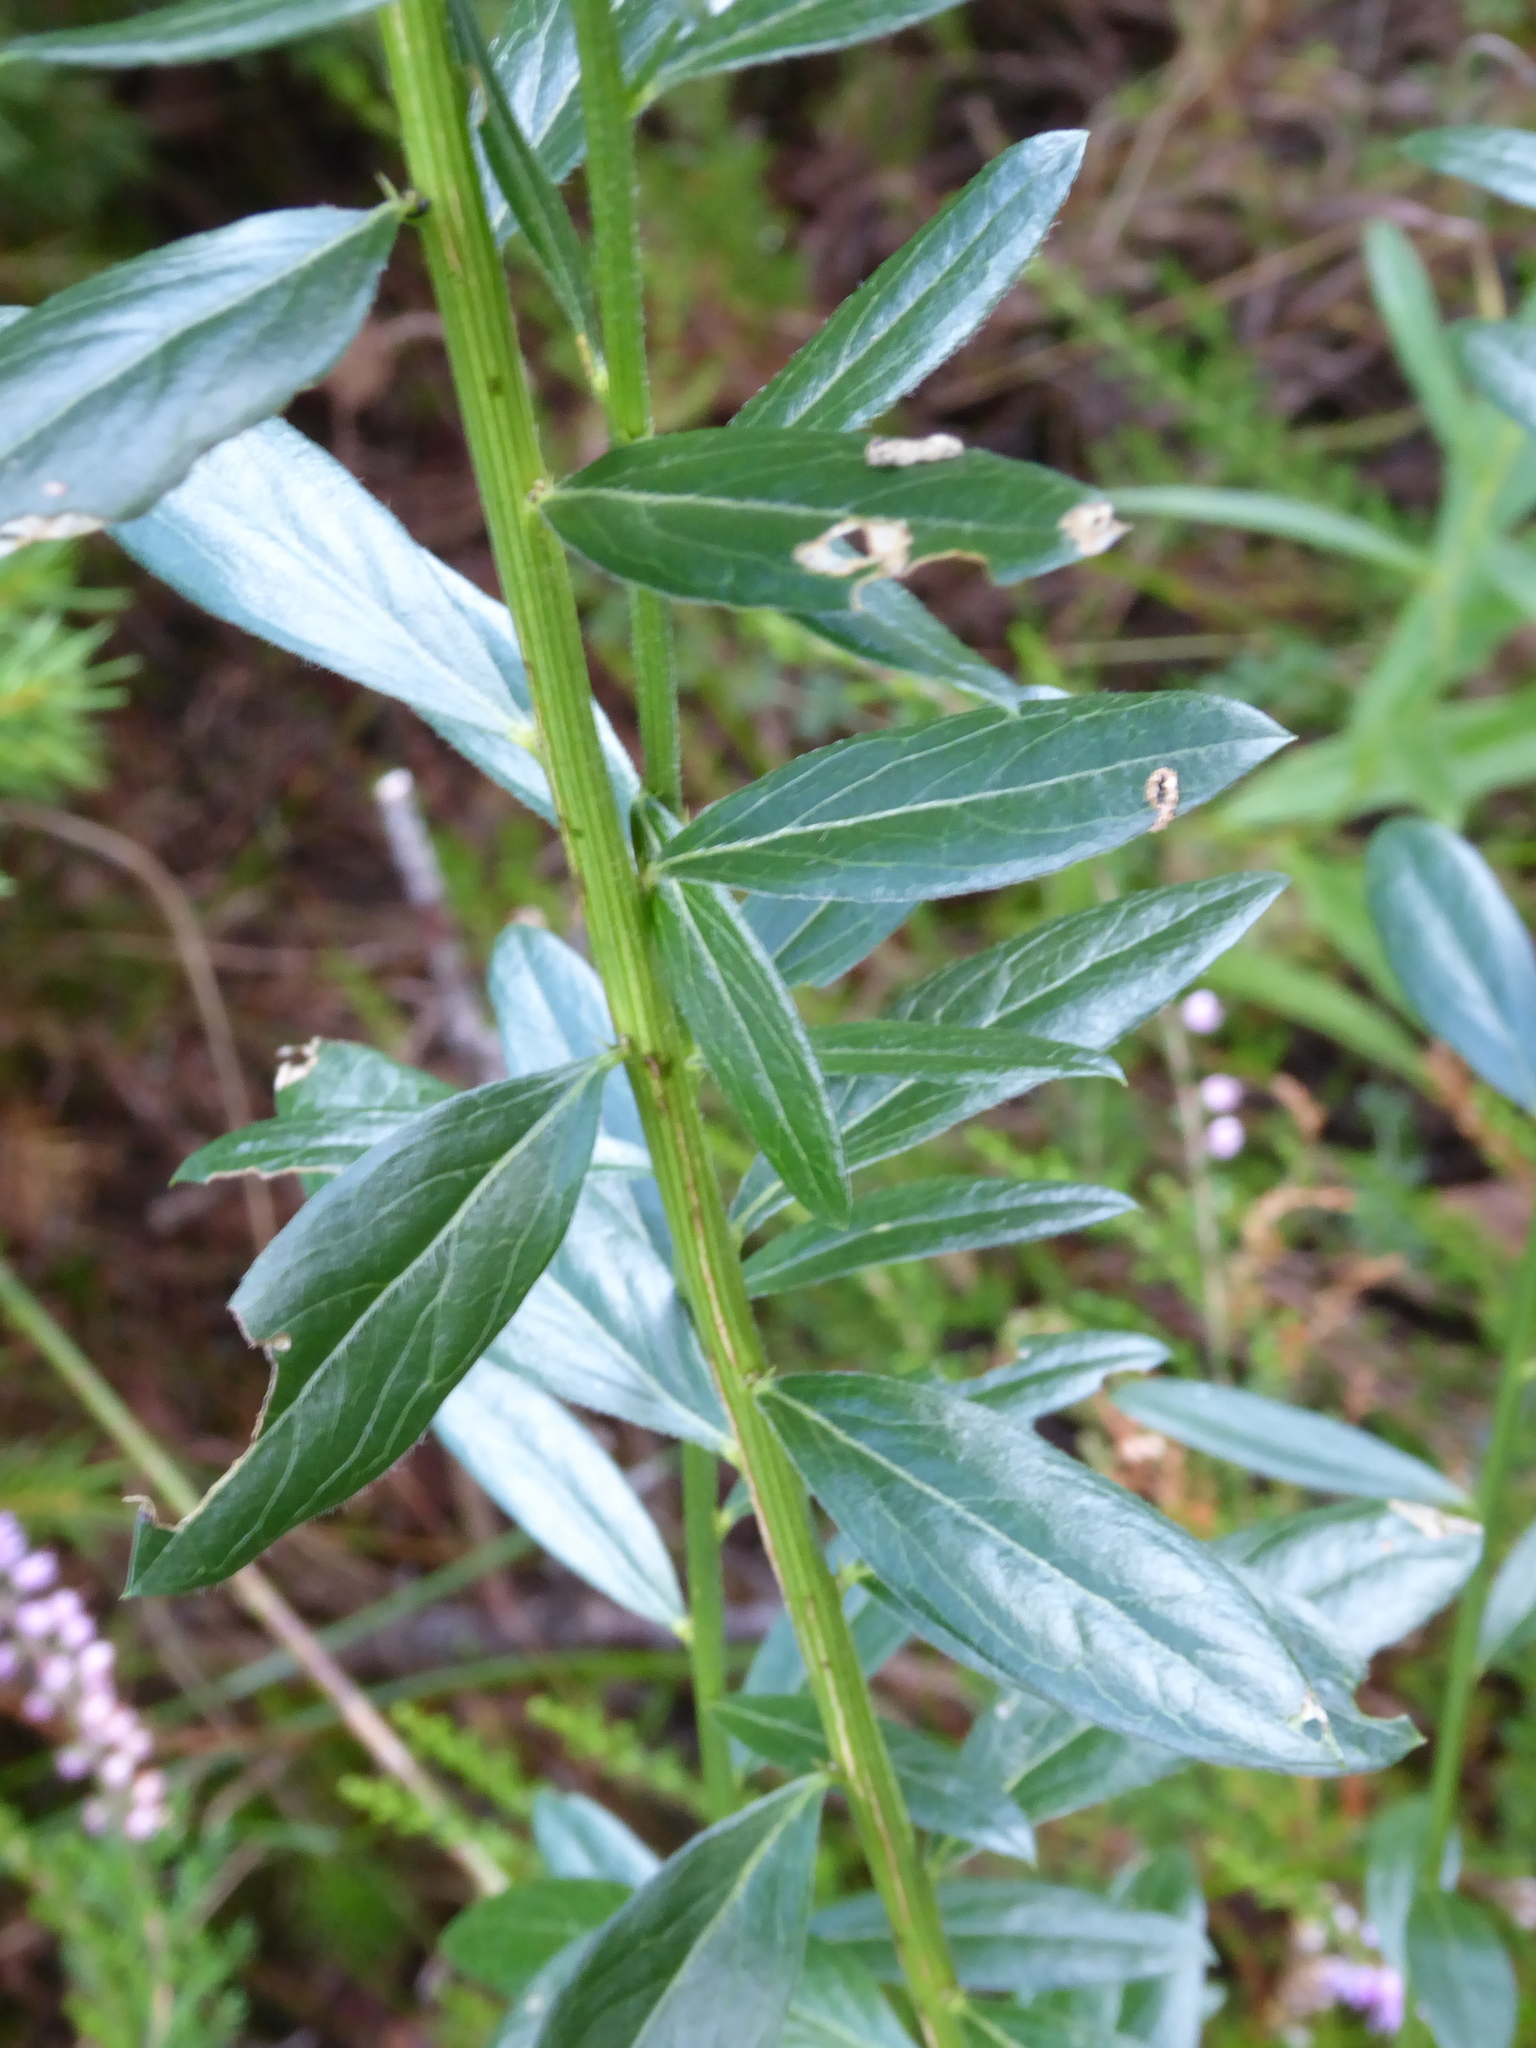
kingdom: Plantae
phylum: Tracheophyta
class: Magnoliopsida
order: Fabales
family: Fabaceae
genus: Genista
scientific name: Genista tinctoria
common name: Dyer's greenweed
